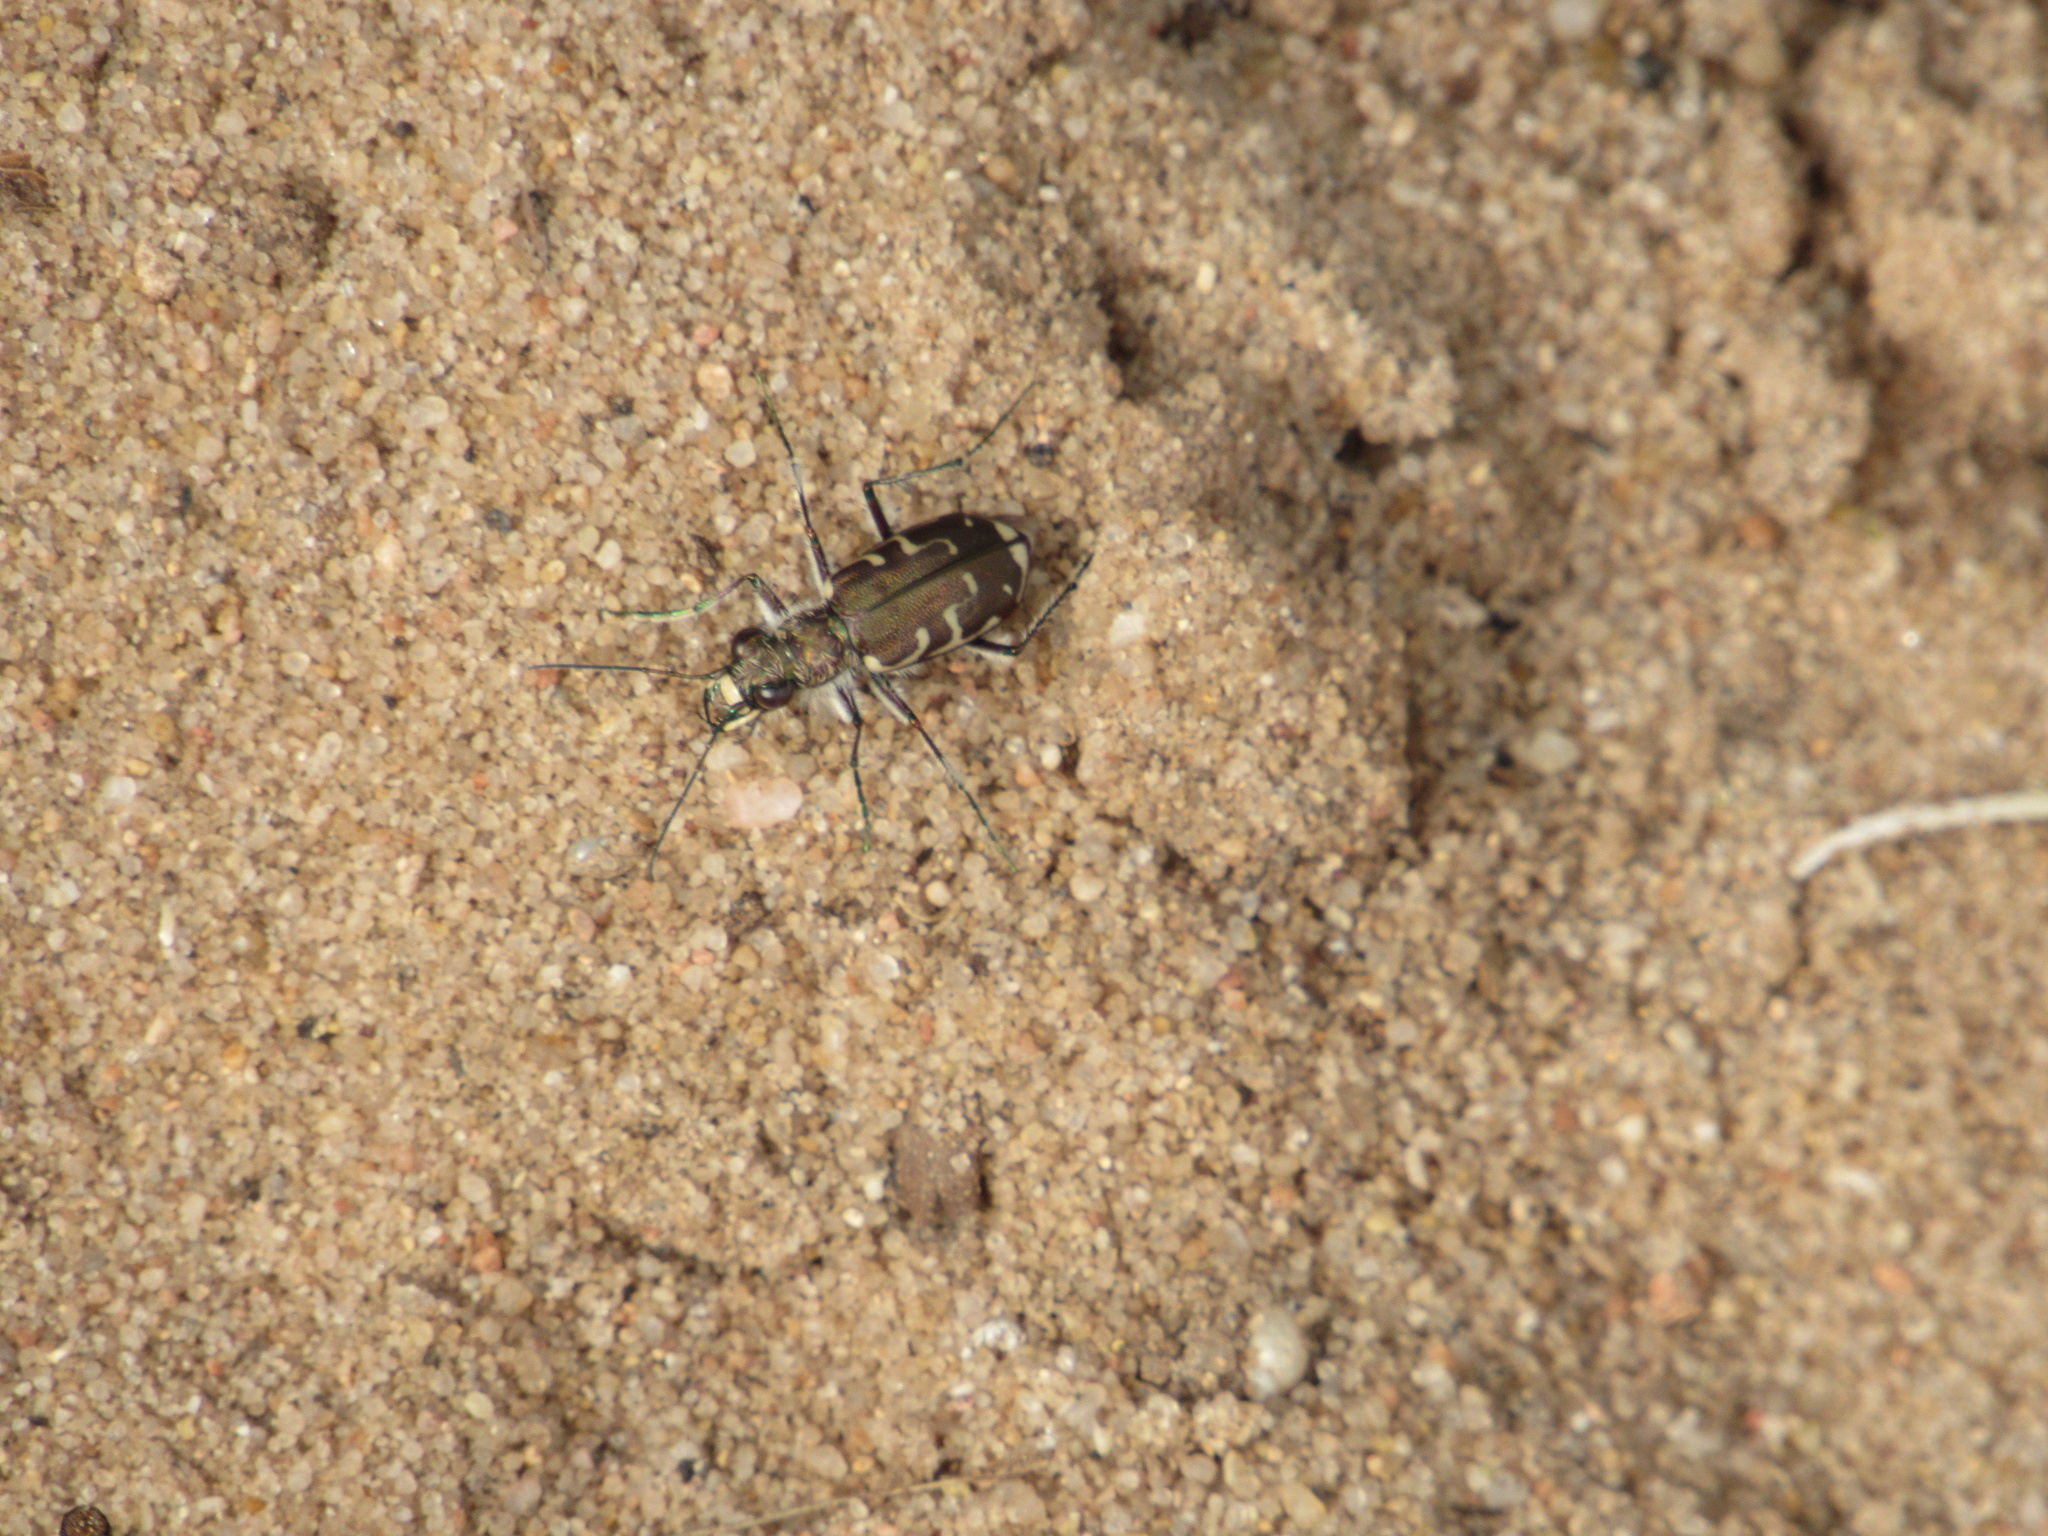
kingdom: Animalia
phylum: Arthropoda
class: Insecta
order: Coleoptera
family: Carabidae
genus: Cicindela
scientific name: Cicindela repanda
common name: Bronzed tiger beetle
